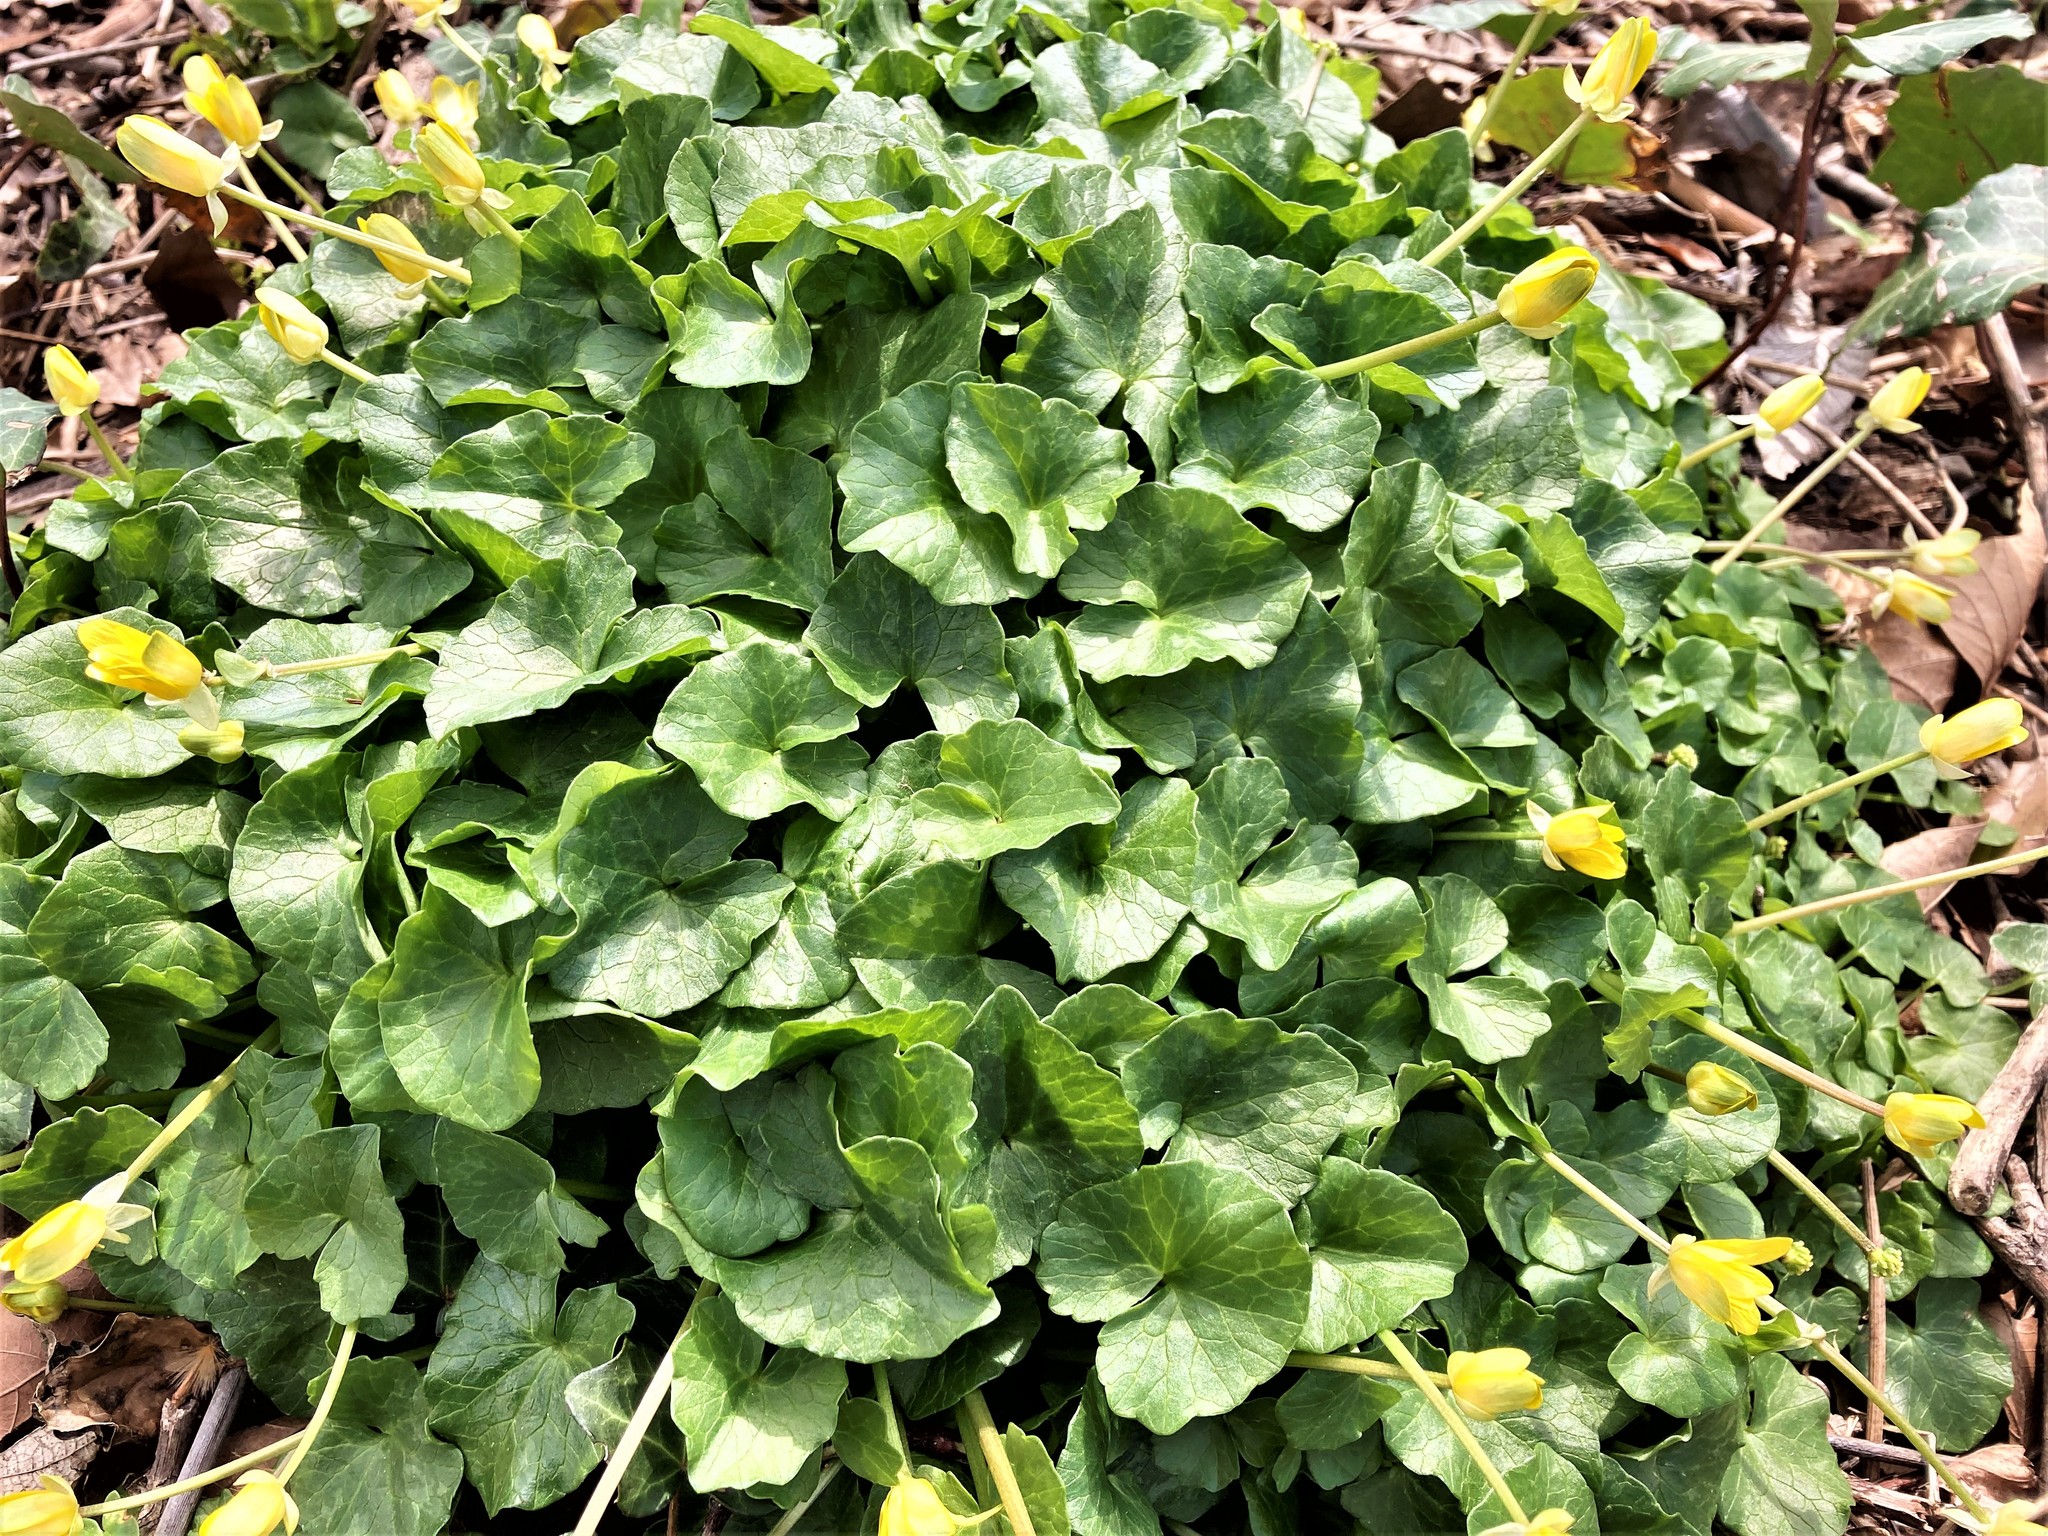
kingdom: Plantae
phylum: Tracheophyta
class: Magnoliopsida
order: Ranunculales
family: Ranunculaceae
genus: Ficaria
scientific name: Ficaria verna
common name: Lesser celandine
